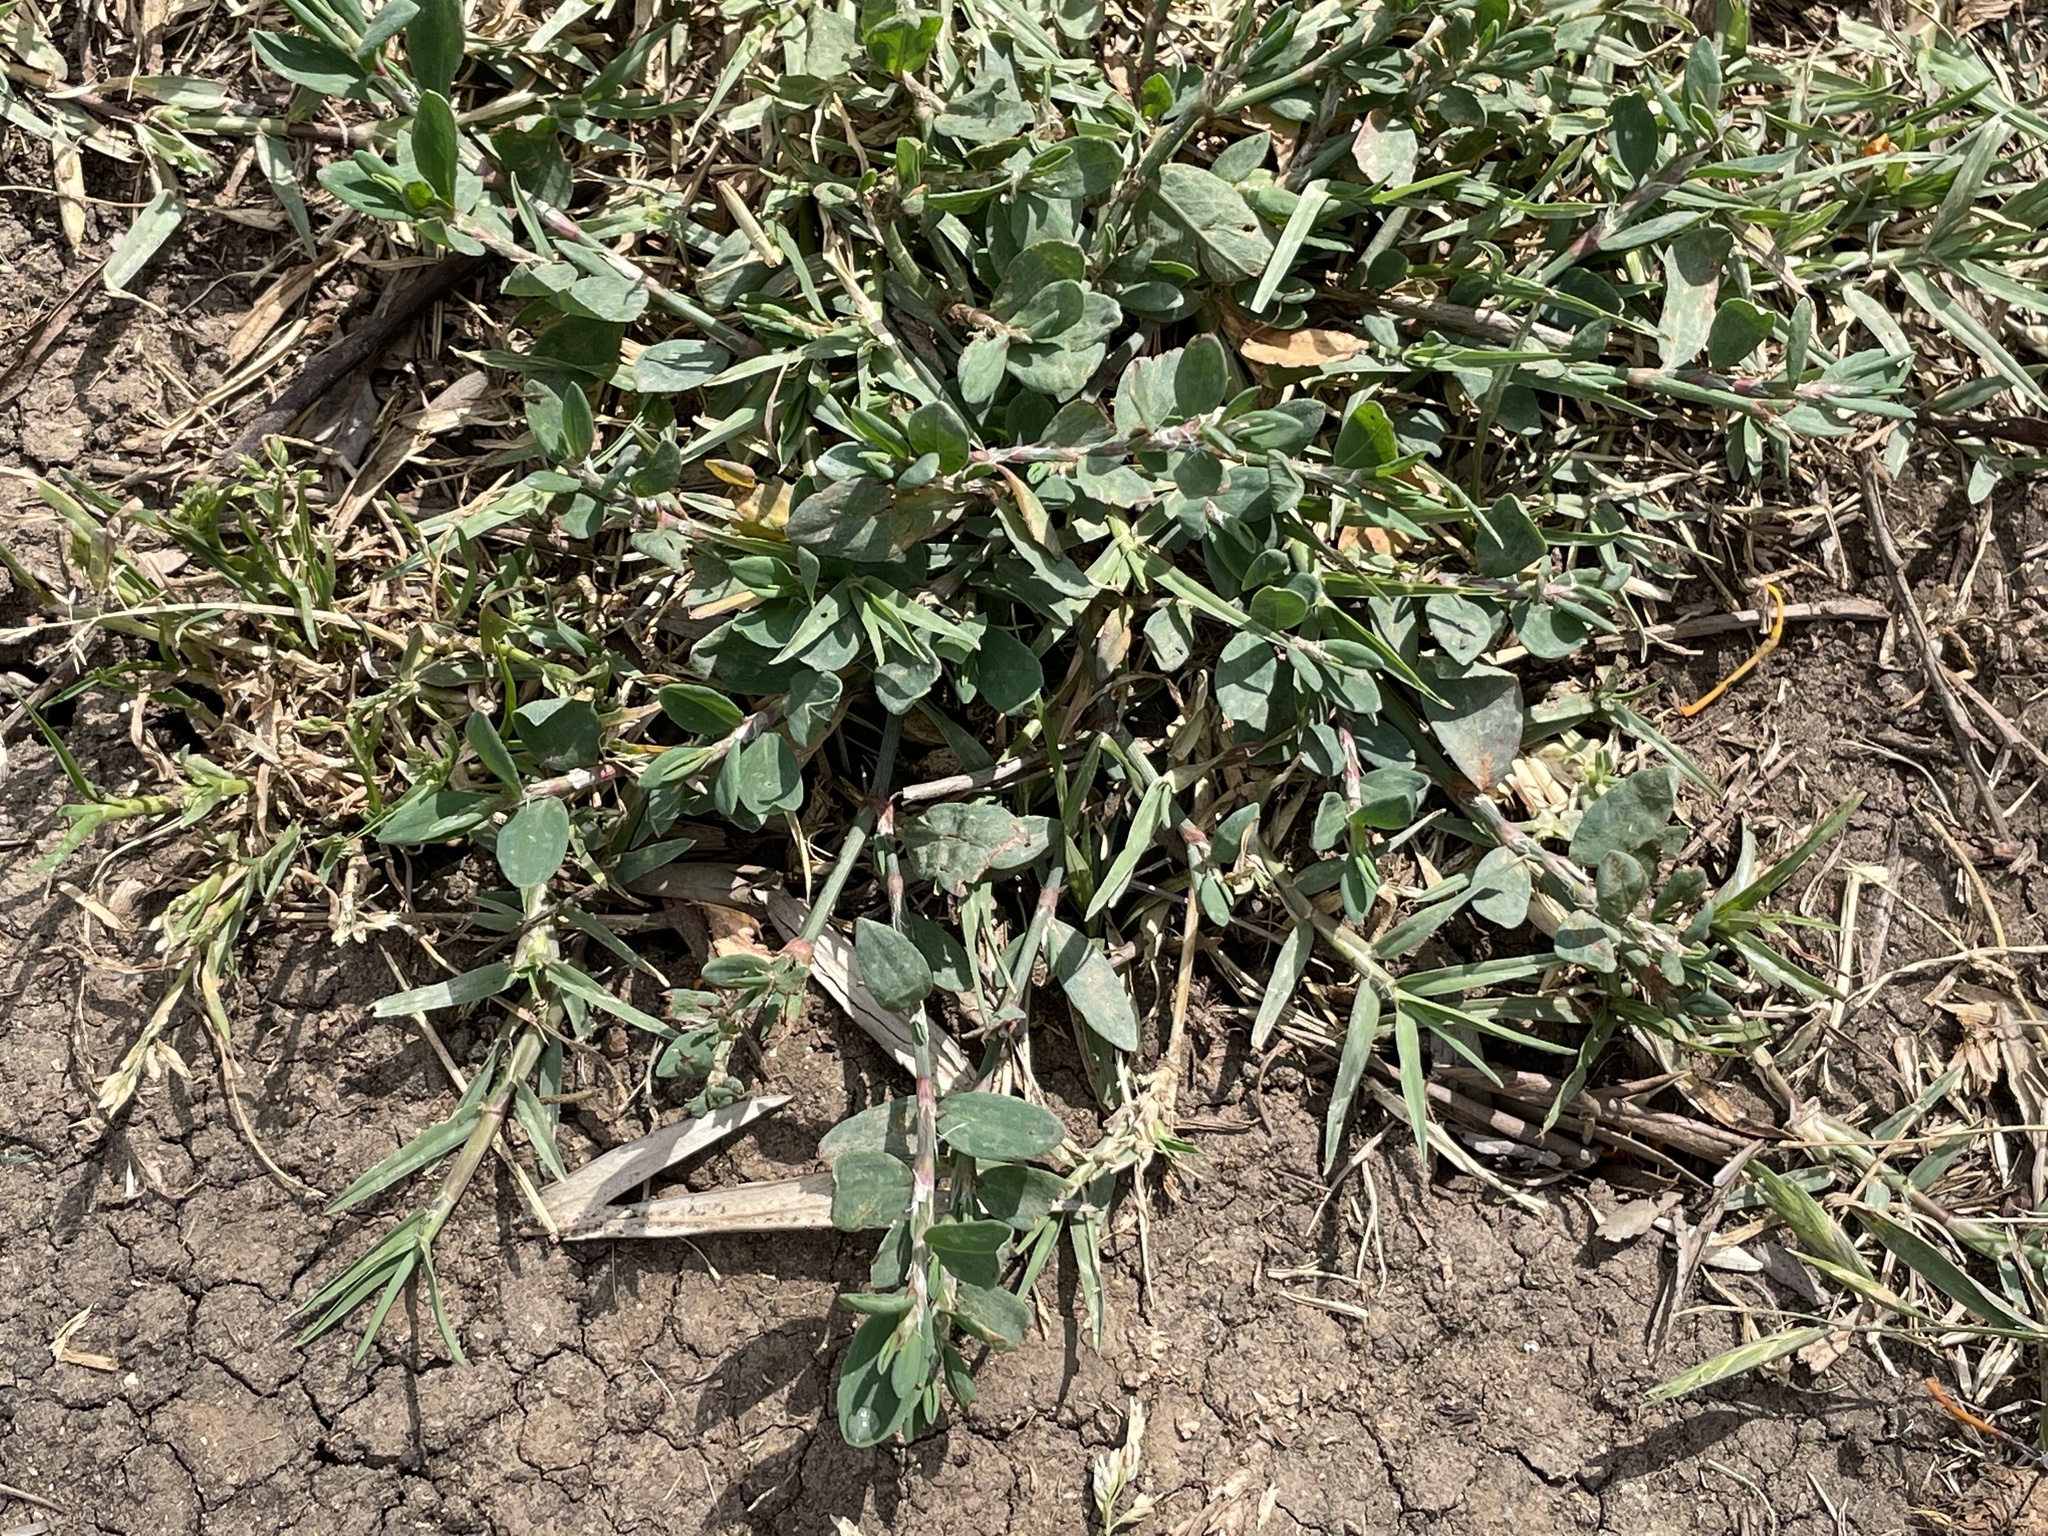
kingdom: Plantae
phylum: Tracheophyta
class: Magnoliopsida
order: Caryophyllales
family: Polygonaceae
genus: Polygonum
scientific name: Polygonum aviculare
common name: Prostrate knotweed
